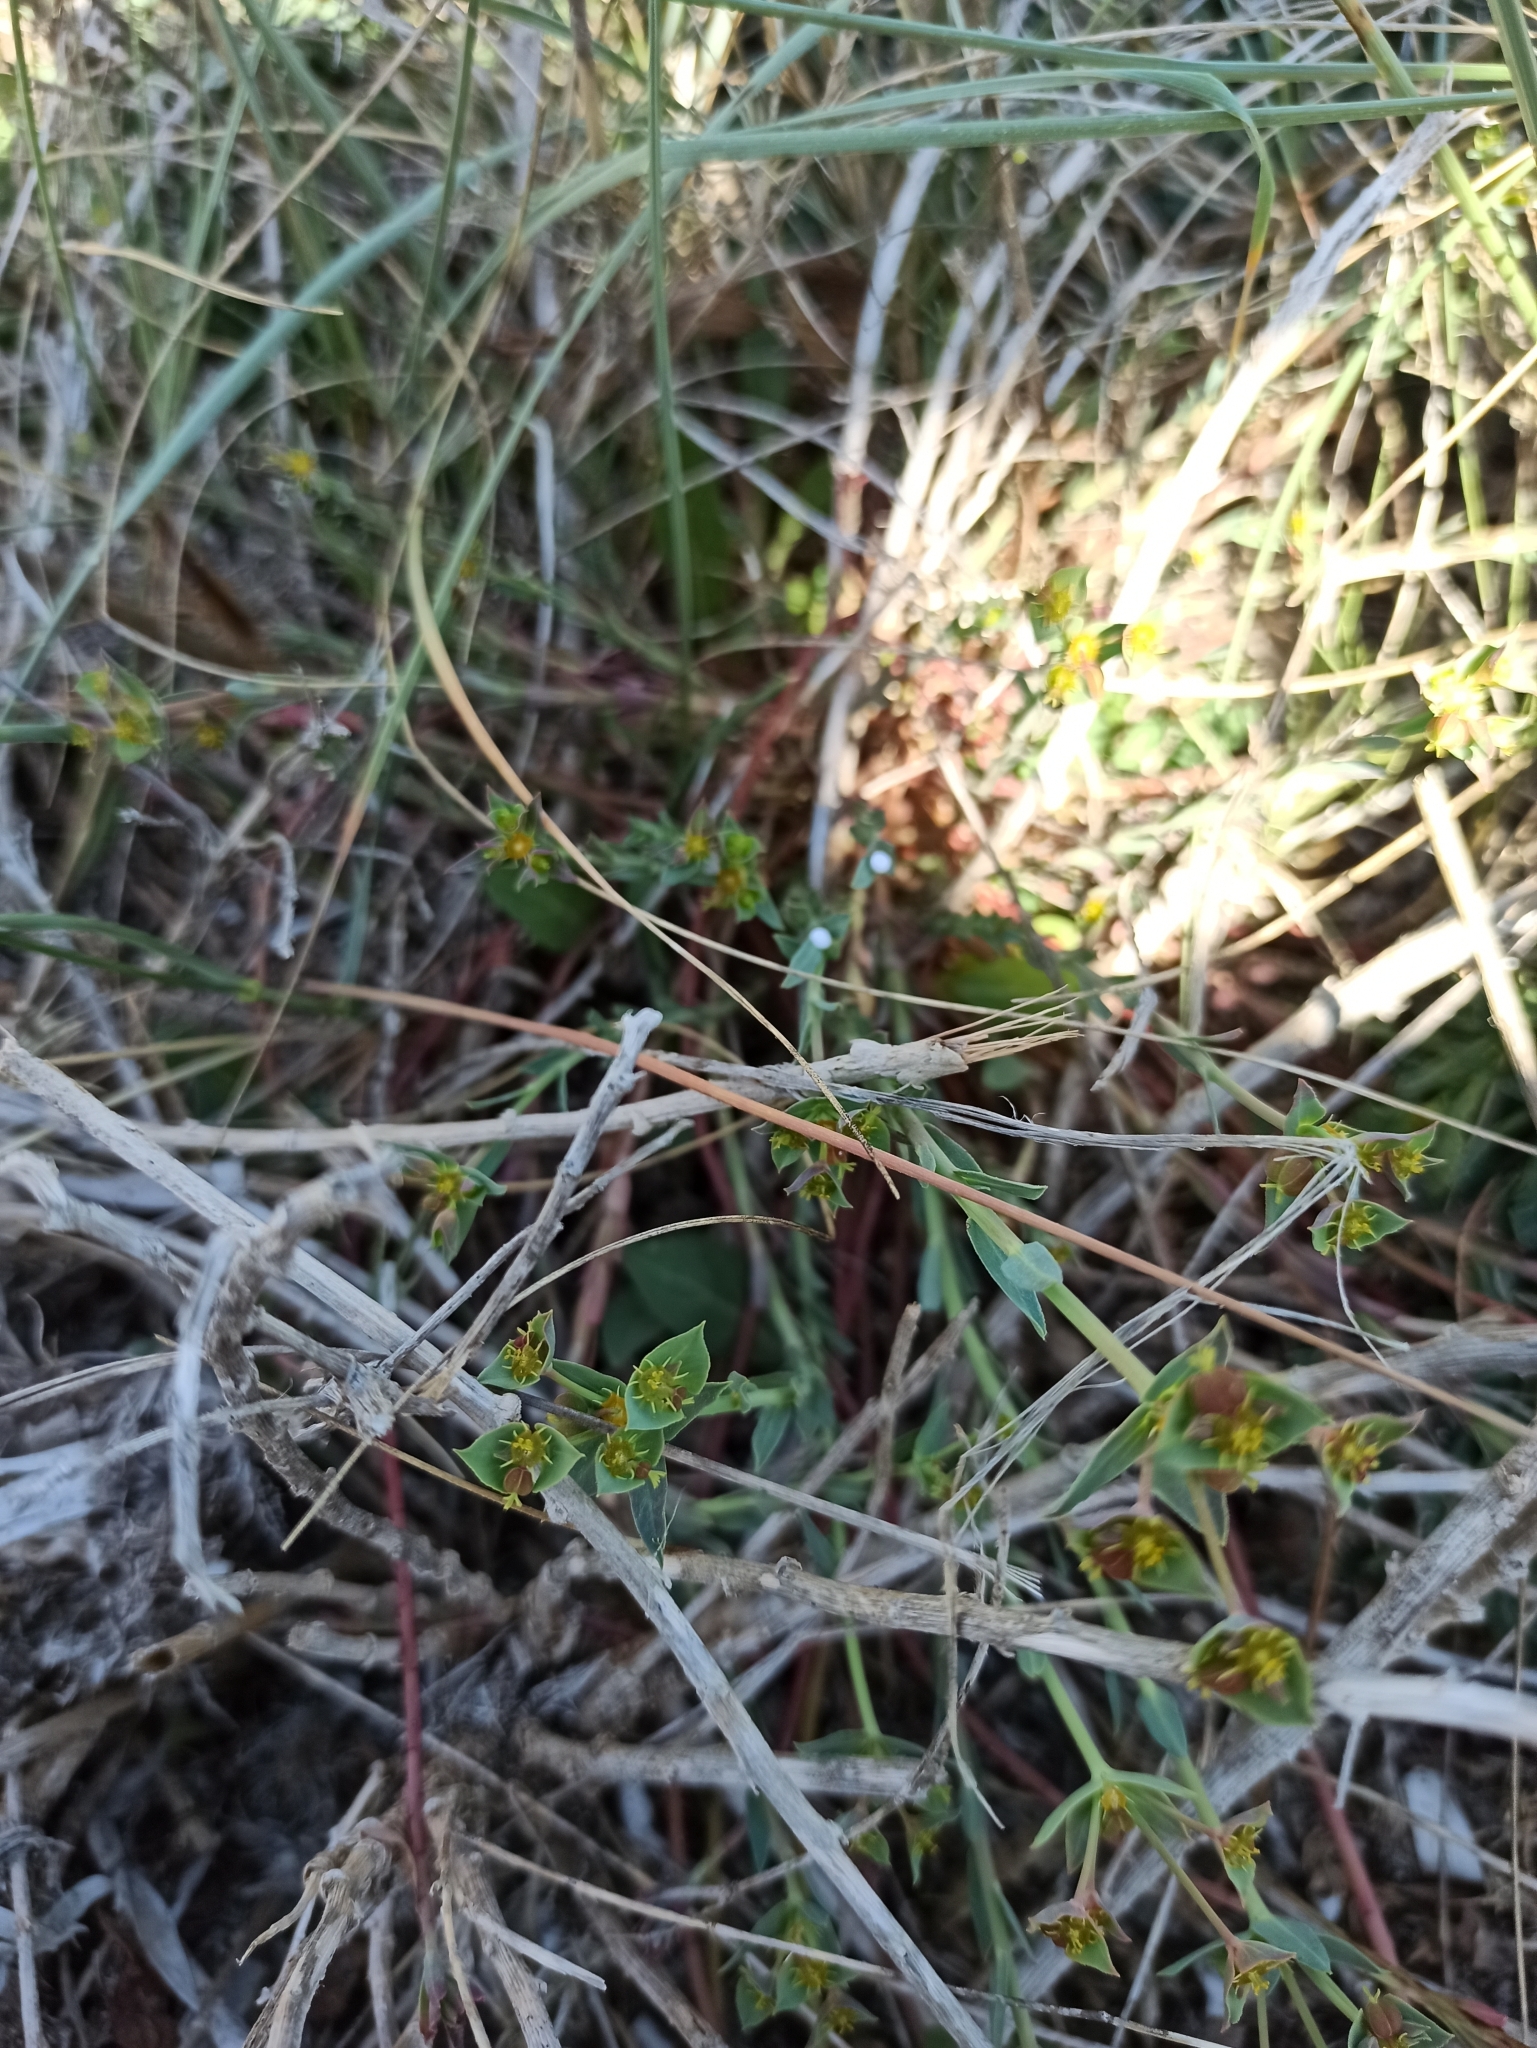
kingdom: Plantae
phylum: Tracheophyta
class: Magnoliopsida
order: Malpighiales
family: Euphorbiaceae
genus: Euphorbia
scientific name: Euphorbia terracina
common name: Geraldton carnation weed
